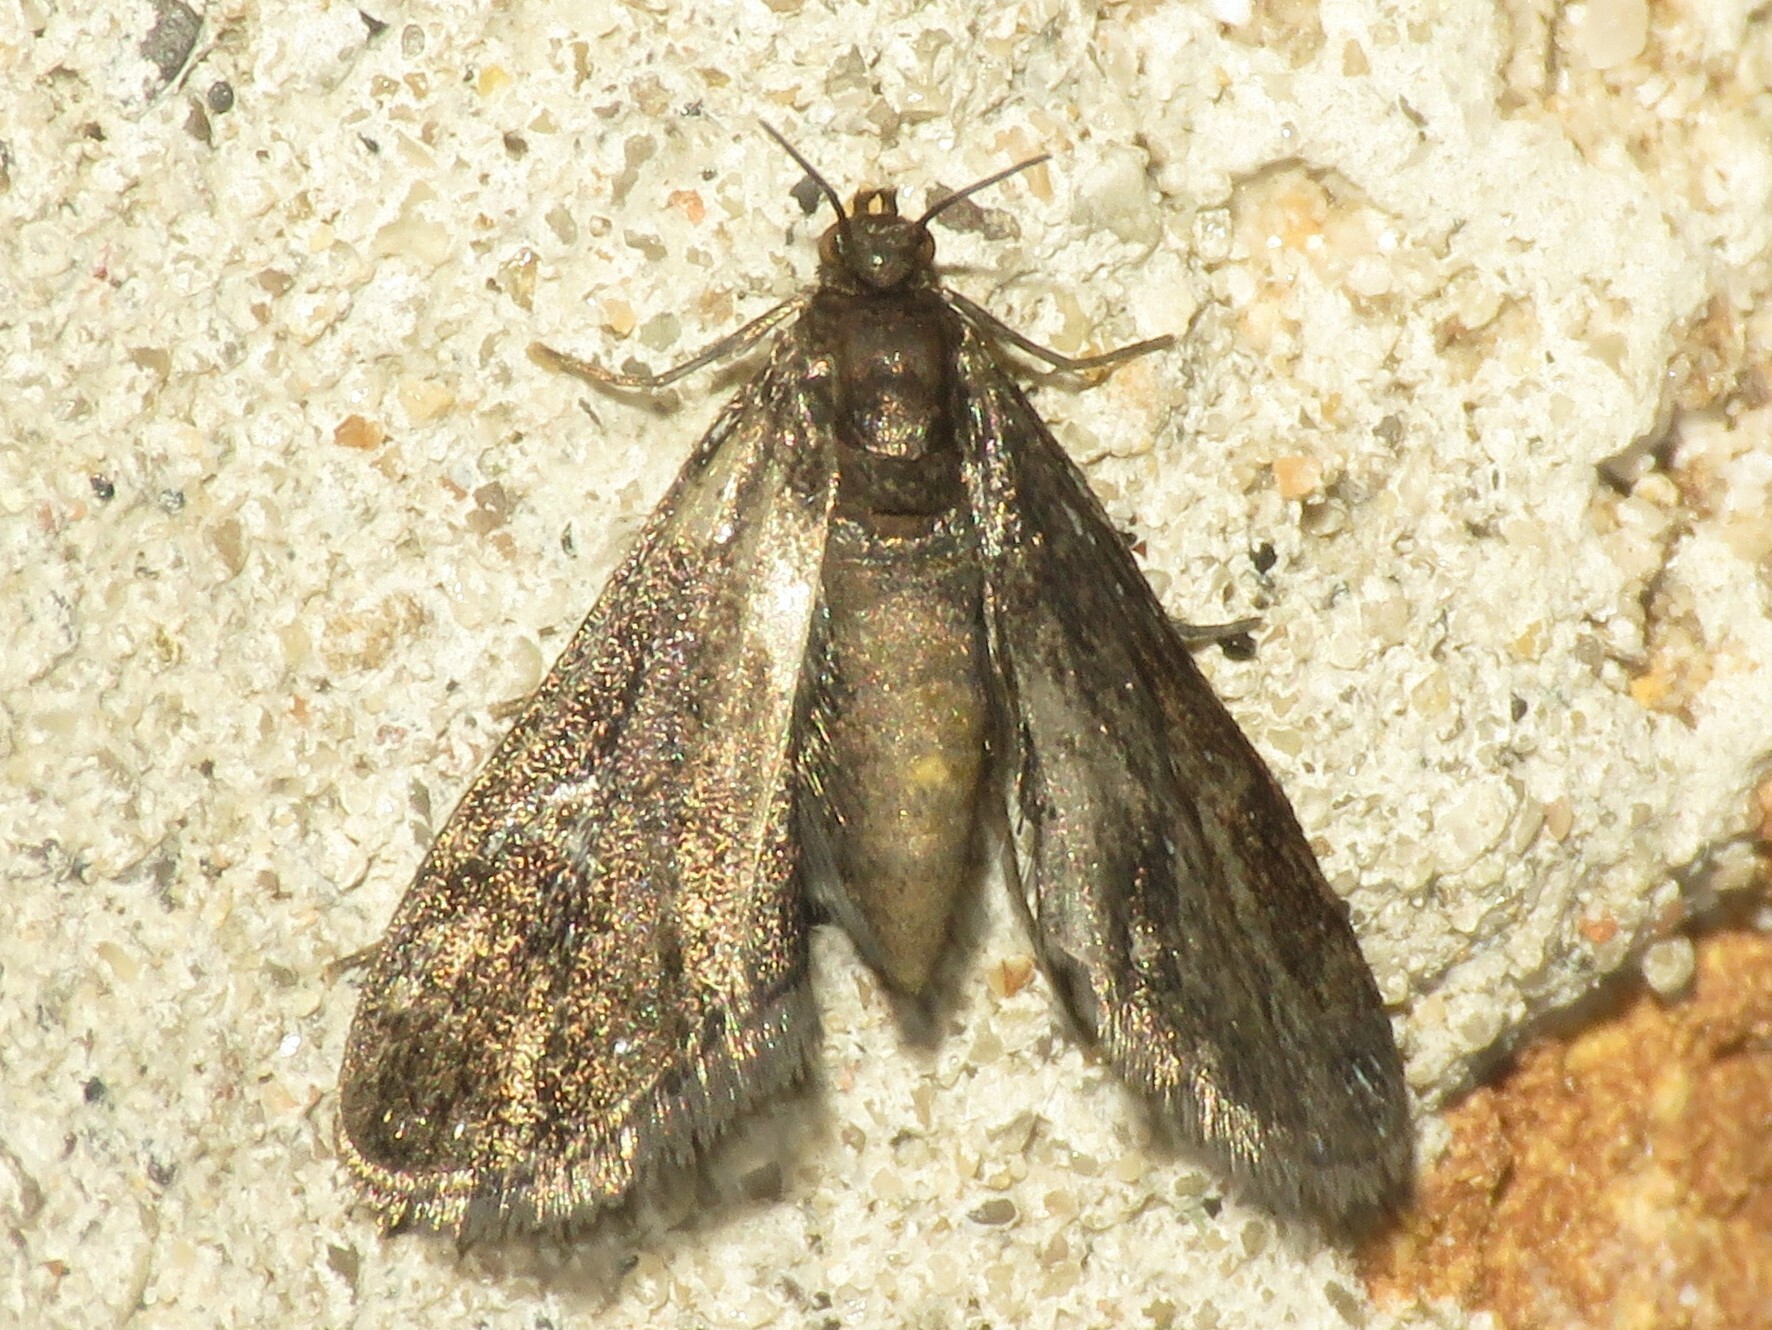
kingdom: Animalia
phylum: Arthropoda
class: Insecta
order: Lepidoptera
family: Crambidae
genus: Elophila
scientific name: Elophila tinealis
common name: Black duckweed moth
